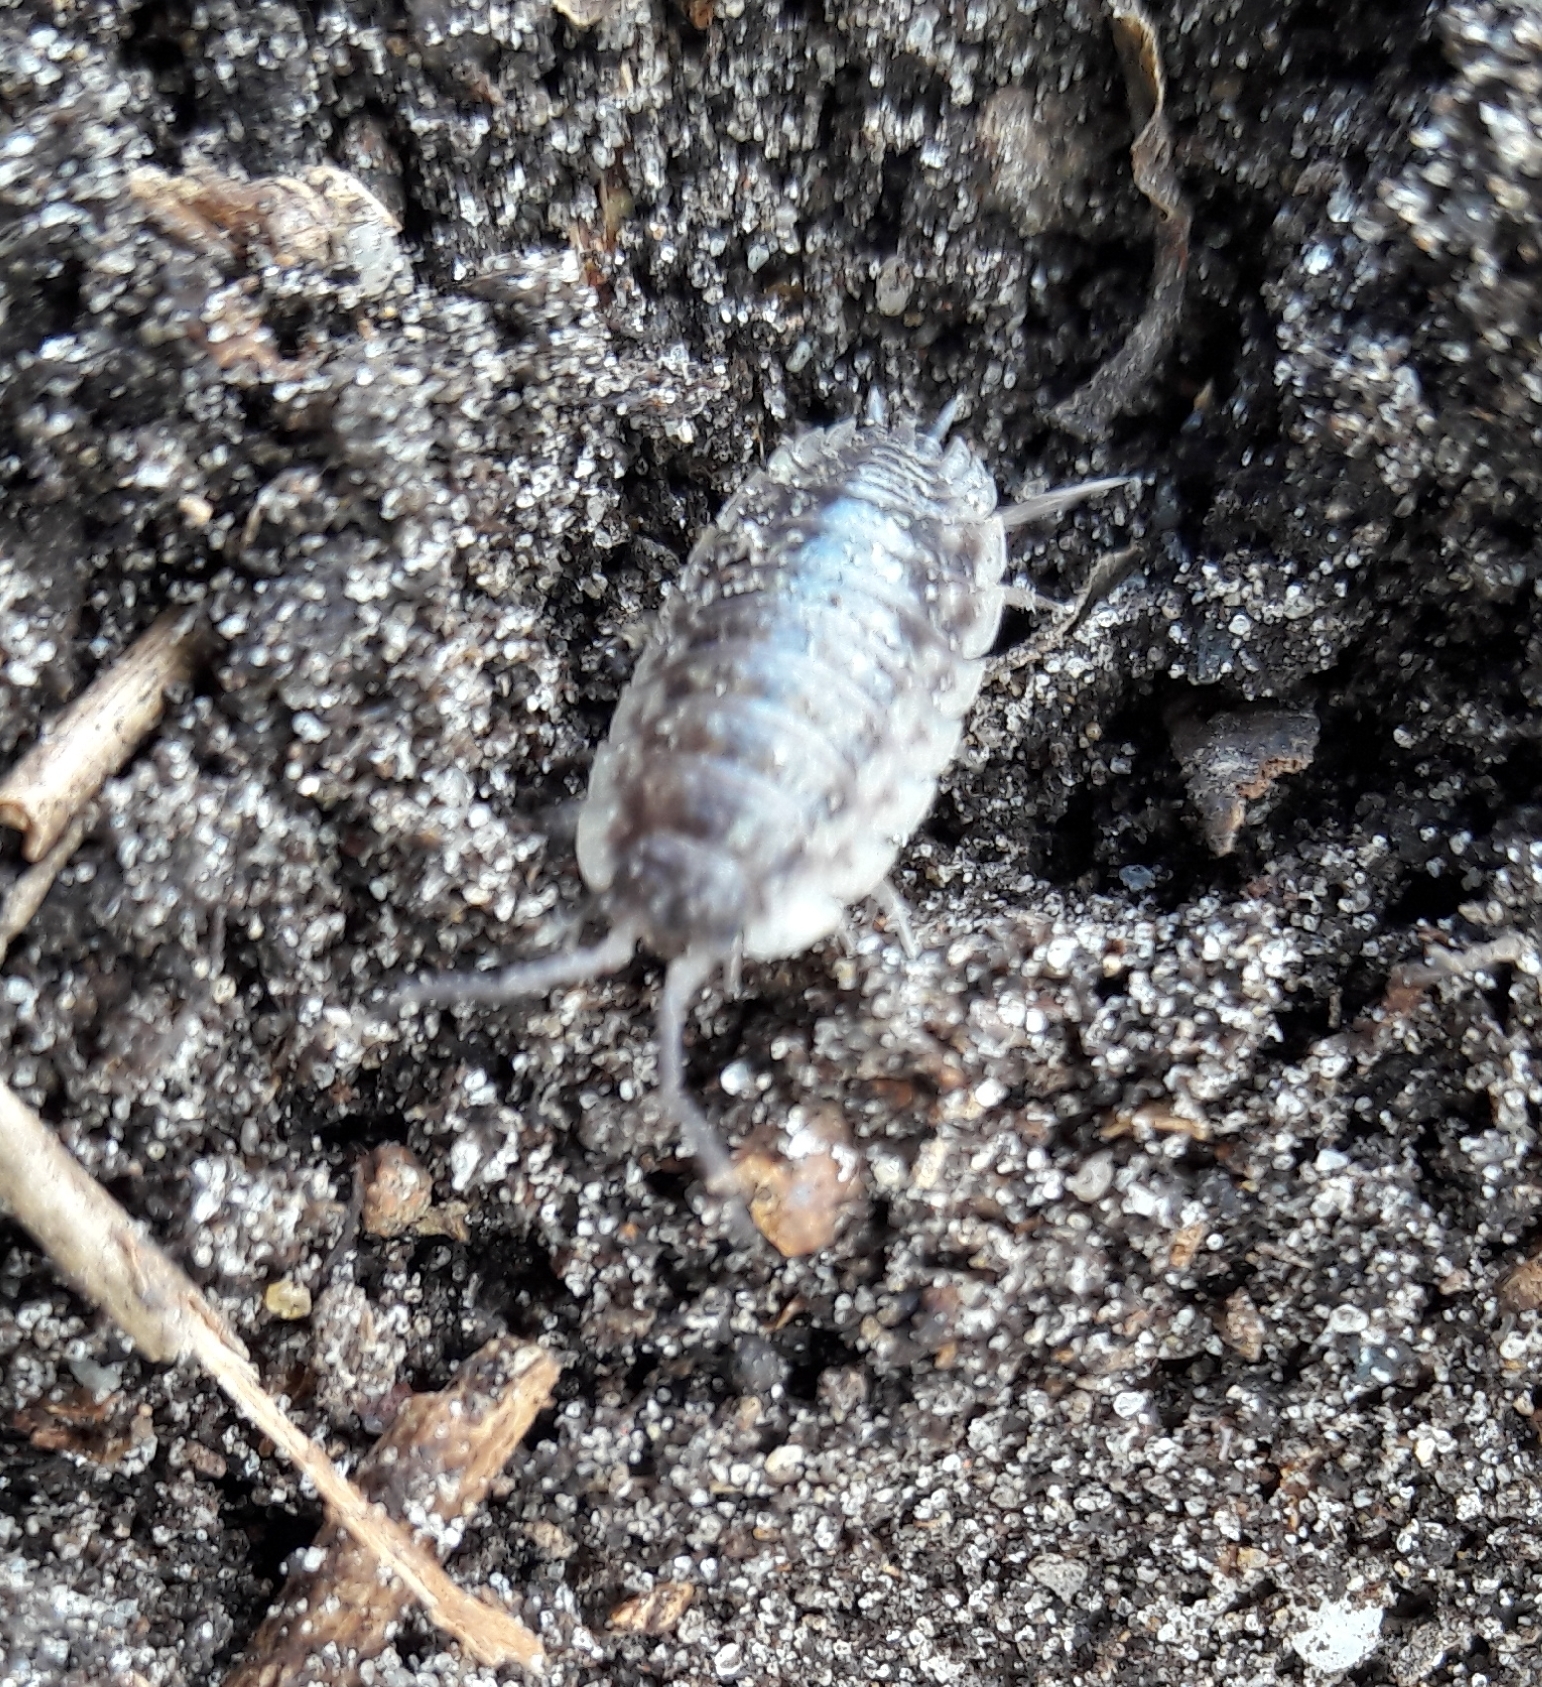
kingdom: Animalia
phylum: Arthropoda
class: Malacostraca
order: Isopoda
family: Oniscidae
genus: Oniscus
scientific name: Oniscus asellus
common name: Common shiny woodlouse
